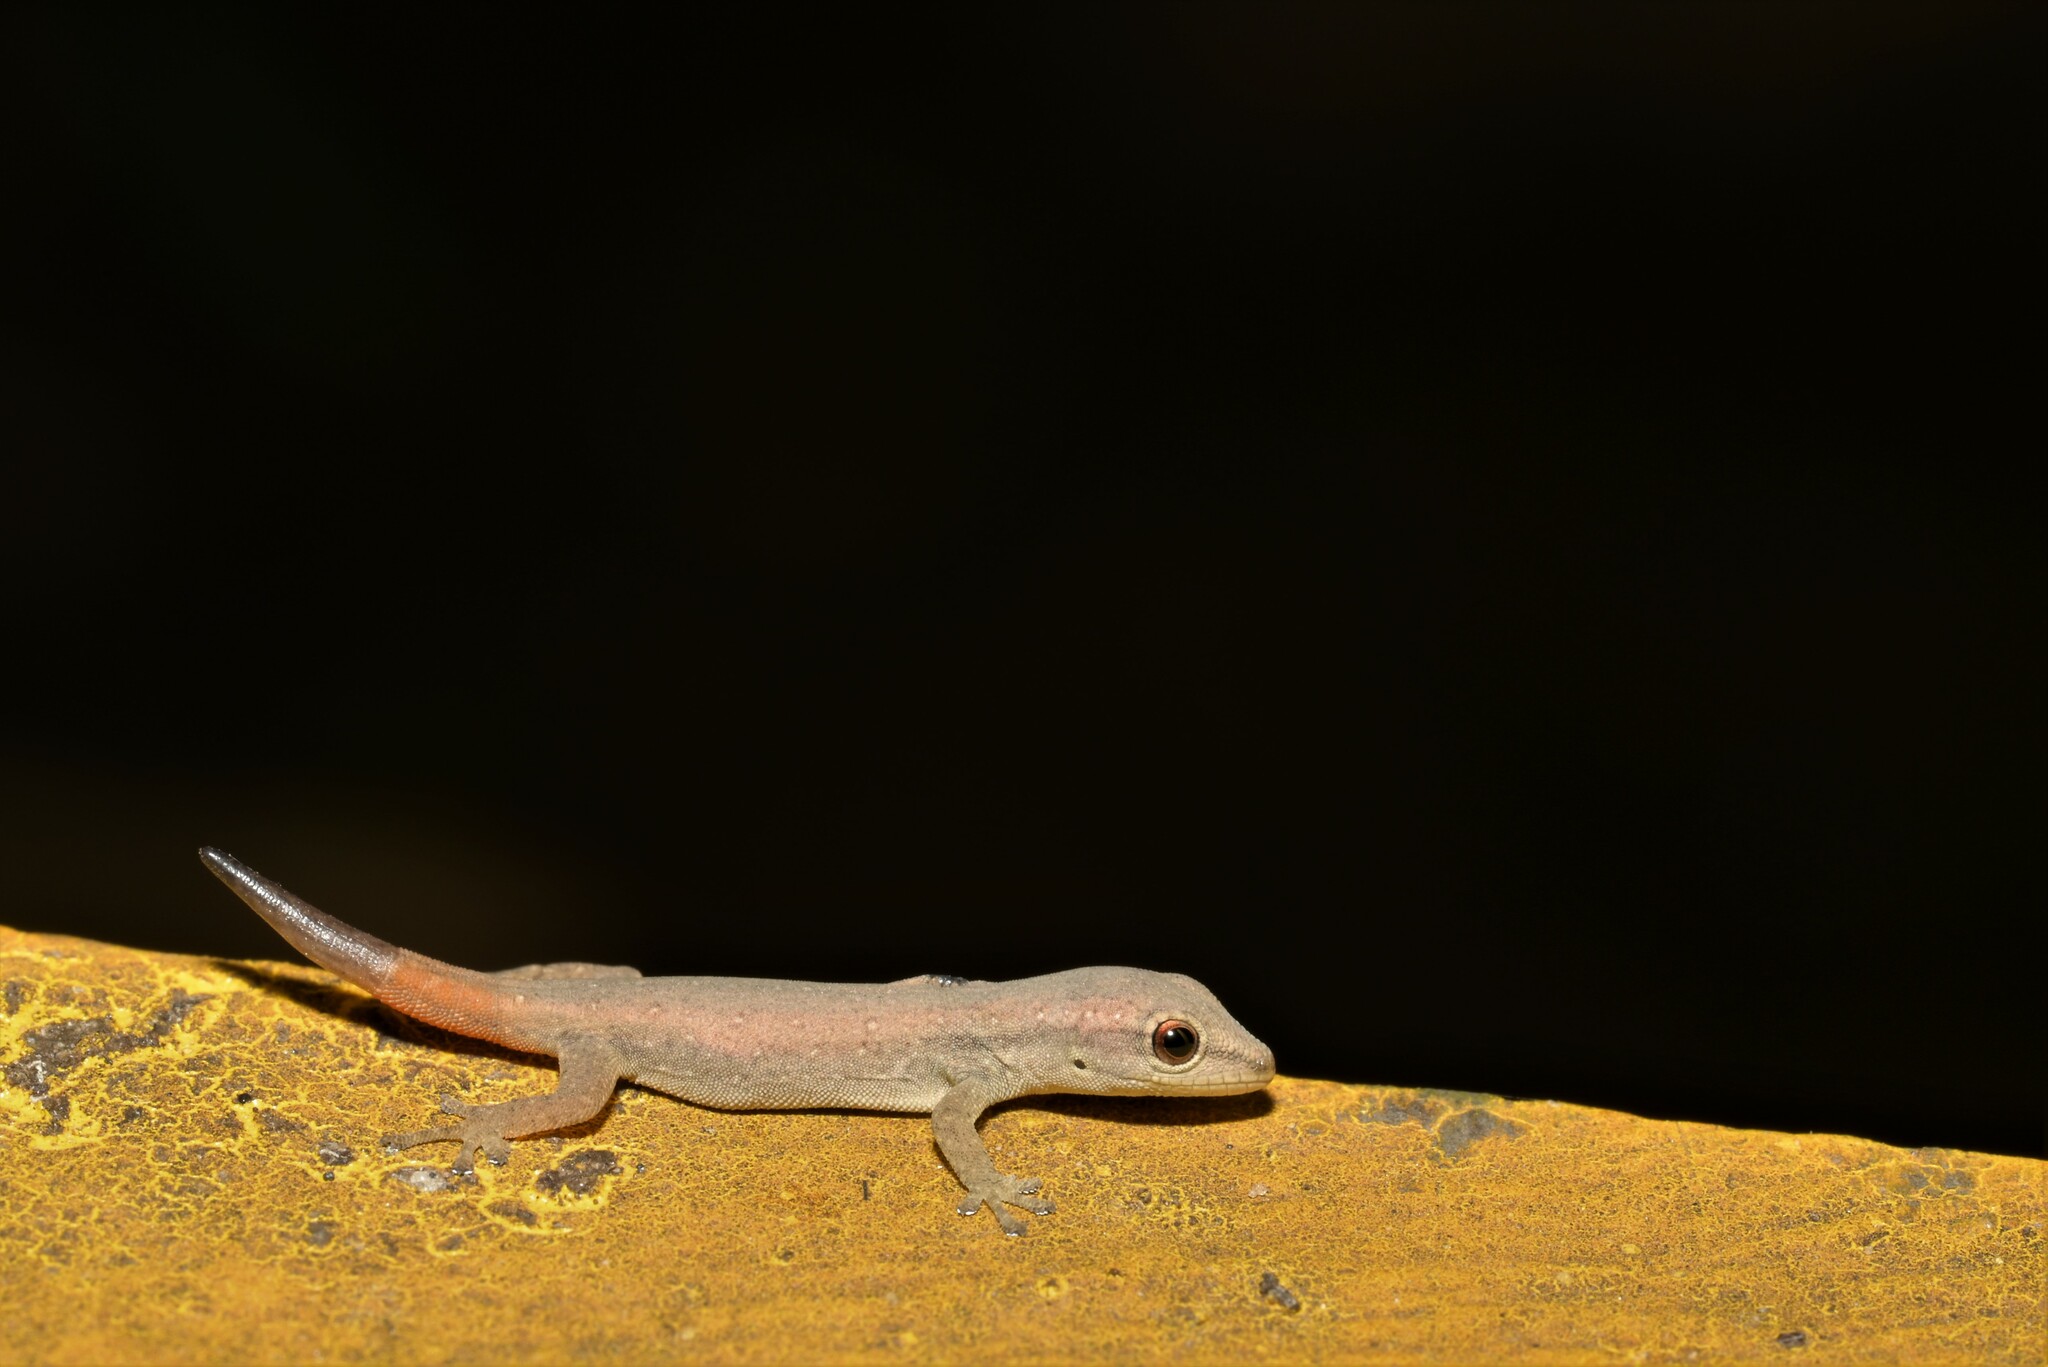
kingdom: Animalia
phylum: Chordata
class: Squamata
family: Gekkonidae
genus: Lygodactylus
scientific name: Lygodactylus capensis
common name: Cape dwarf gecko
